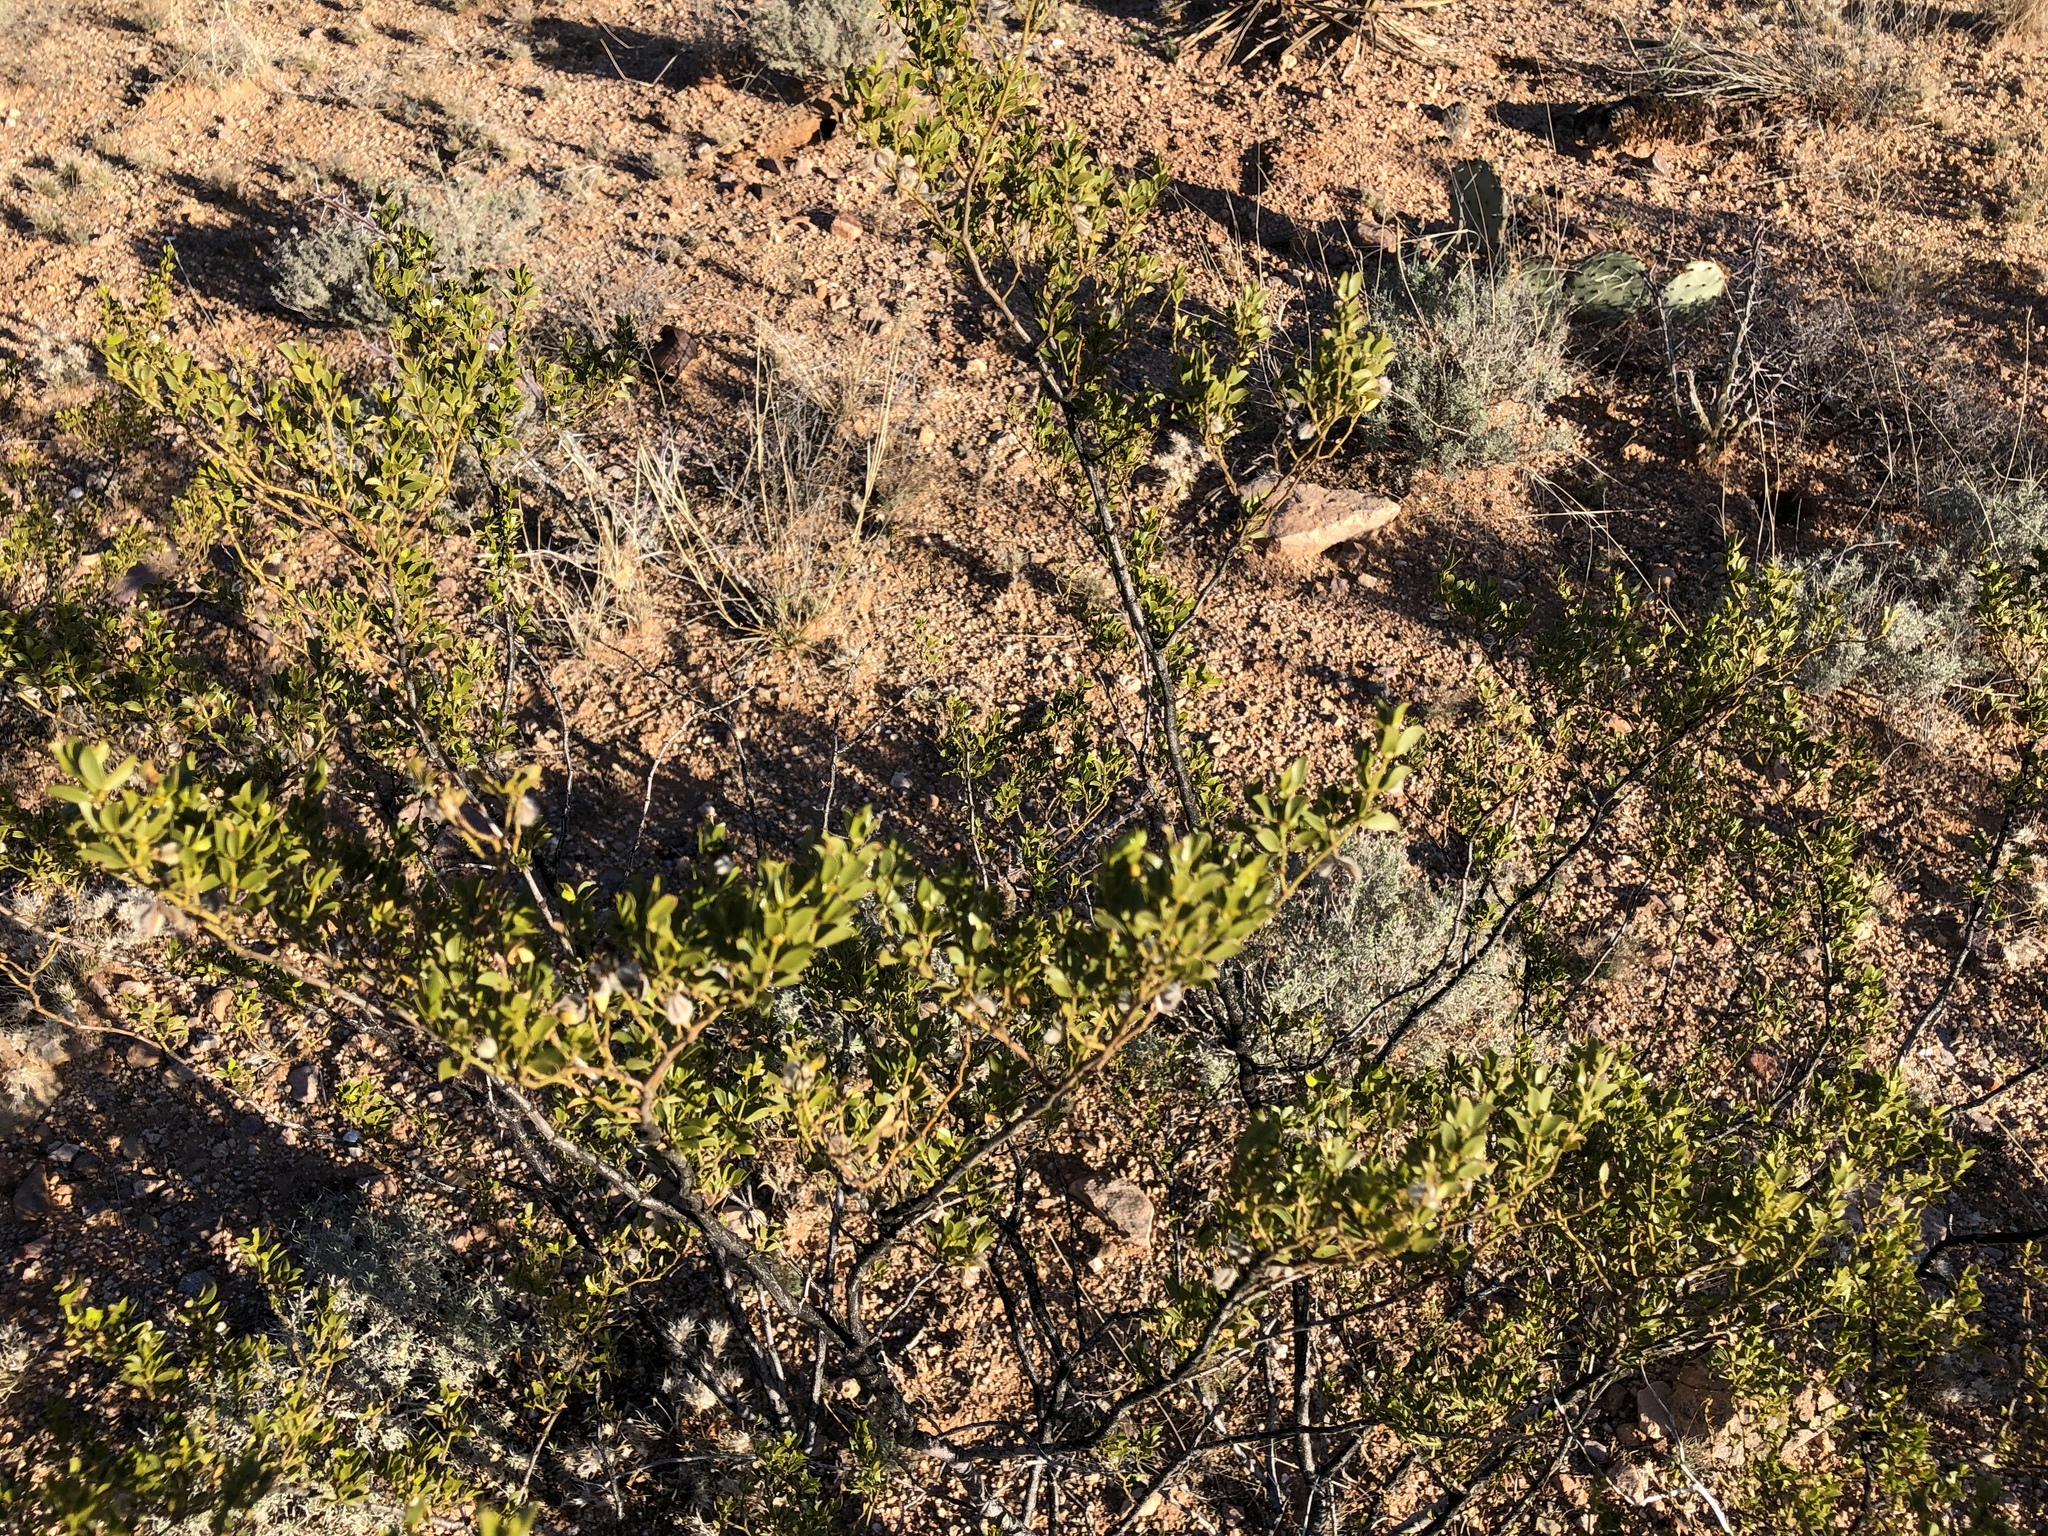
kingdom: Plantae
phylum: Tracheophyta
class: Magnoliopsida
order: Zygophyllales
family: Zygophyllaceae
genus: Larrea
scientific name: Larrea tridentata
